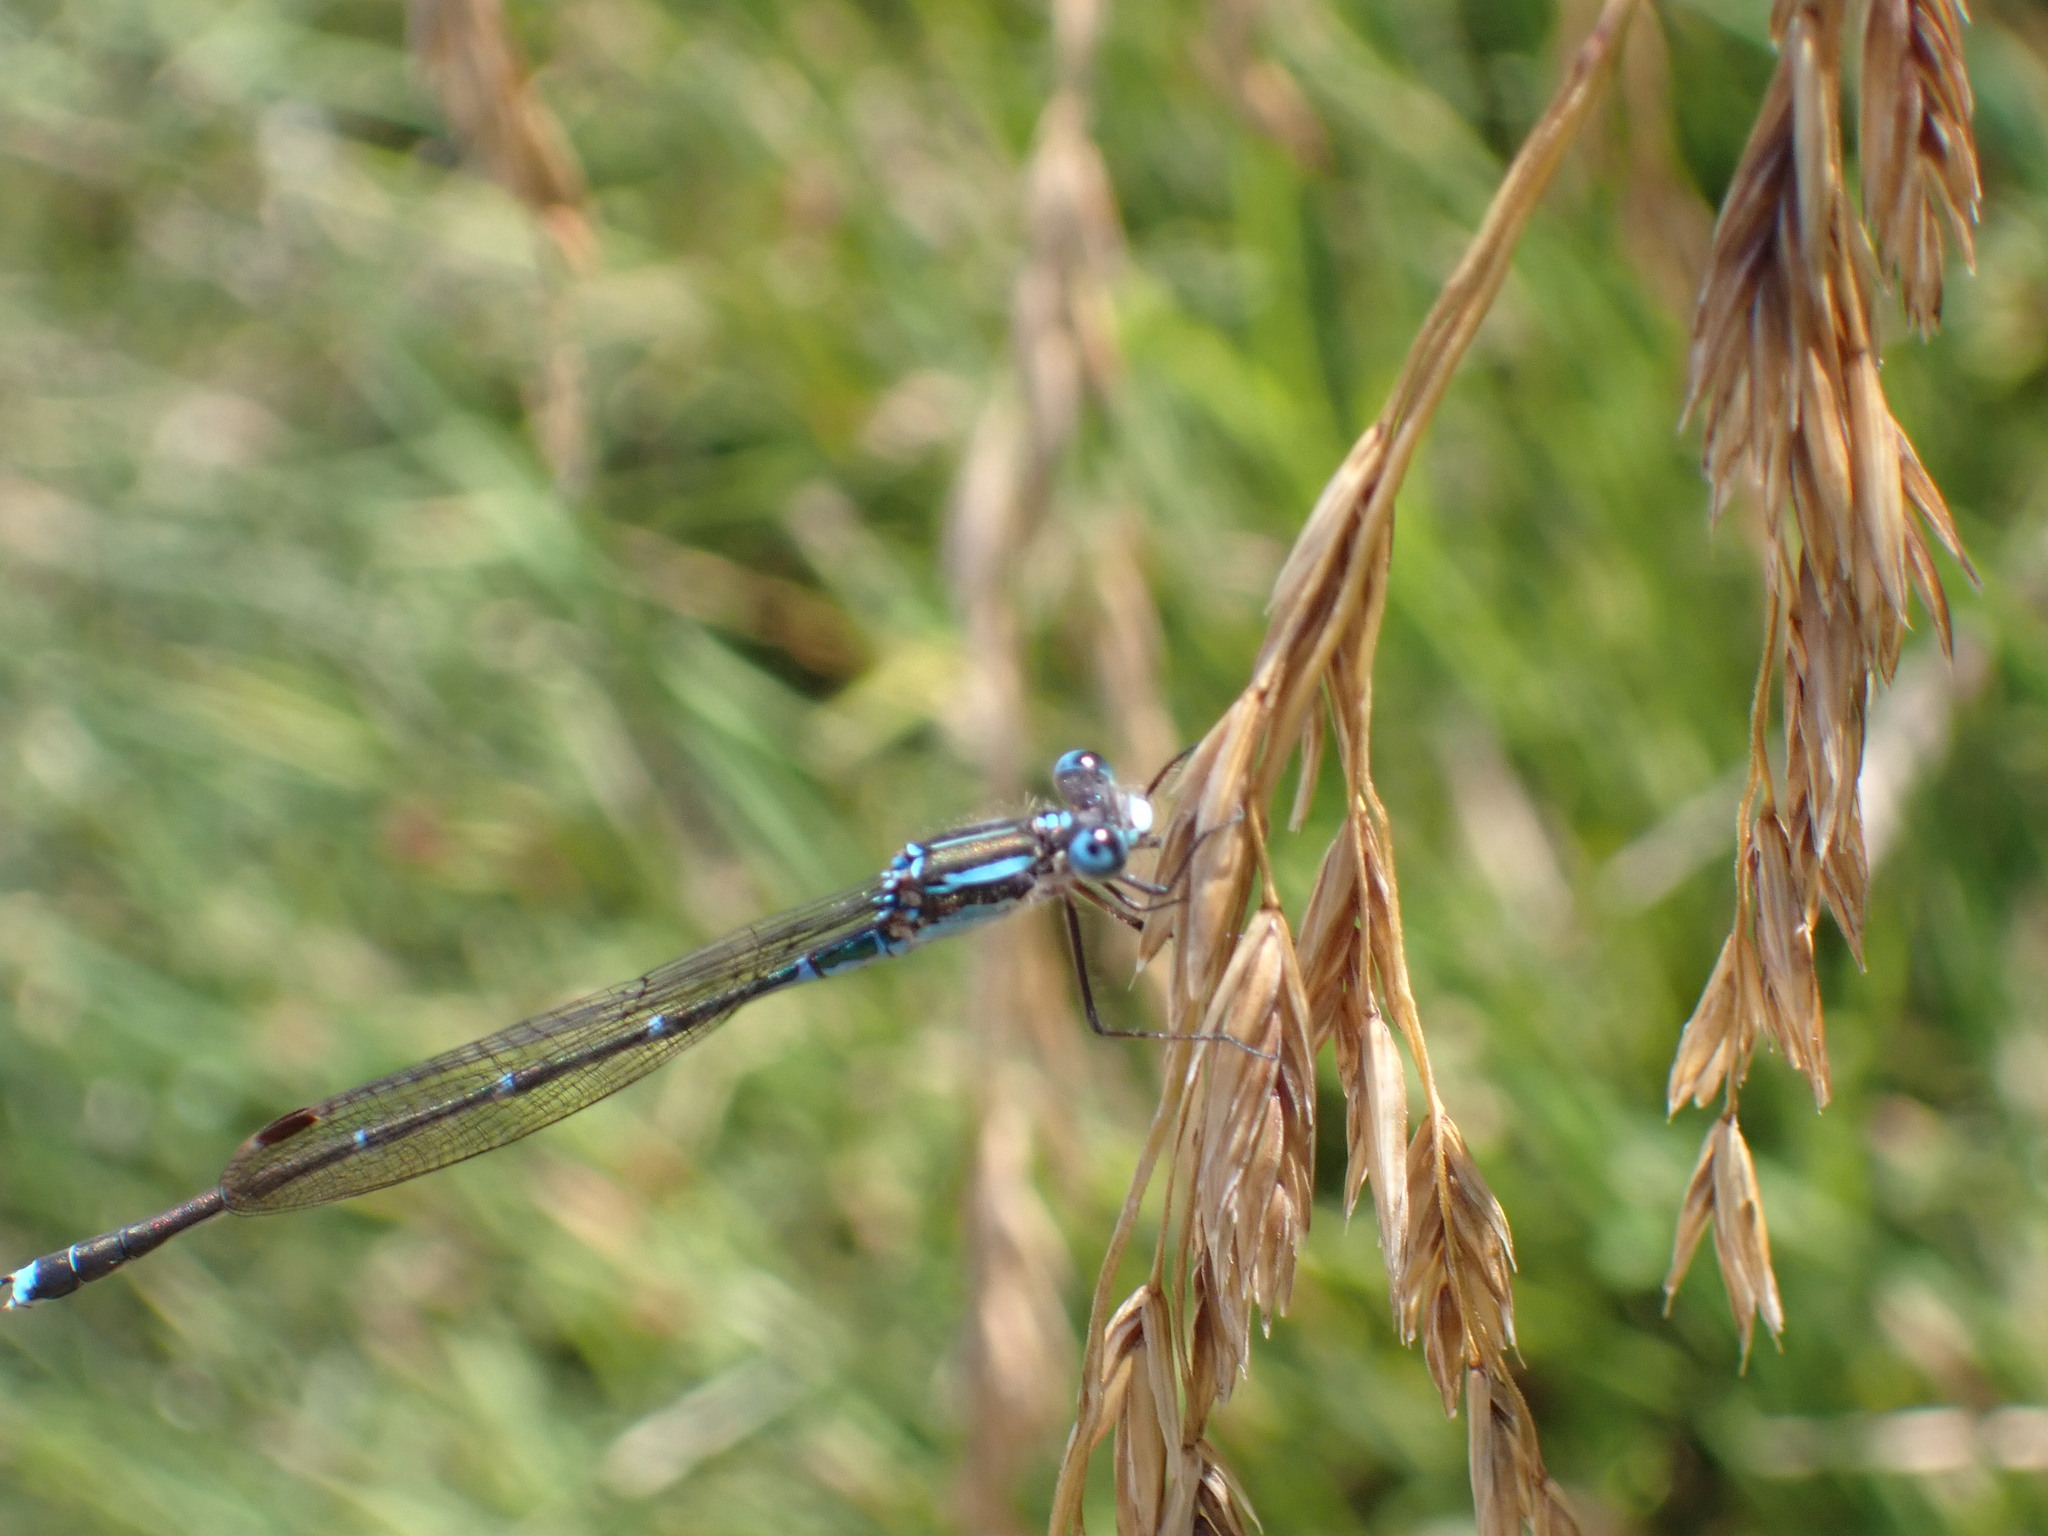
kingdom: Animalia
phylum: Arthropoda
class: Insecta
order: Odonata
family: Lestidae
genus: Austrolestes
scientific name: Austrolestes colensonis
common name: Blue damselfly
